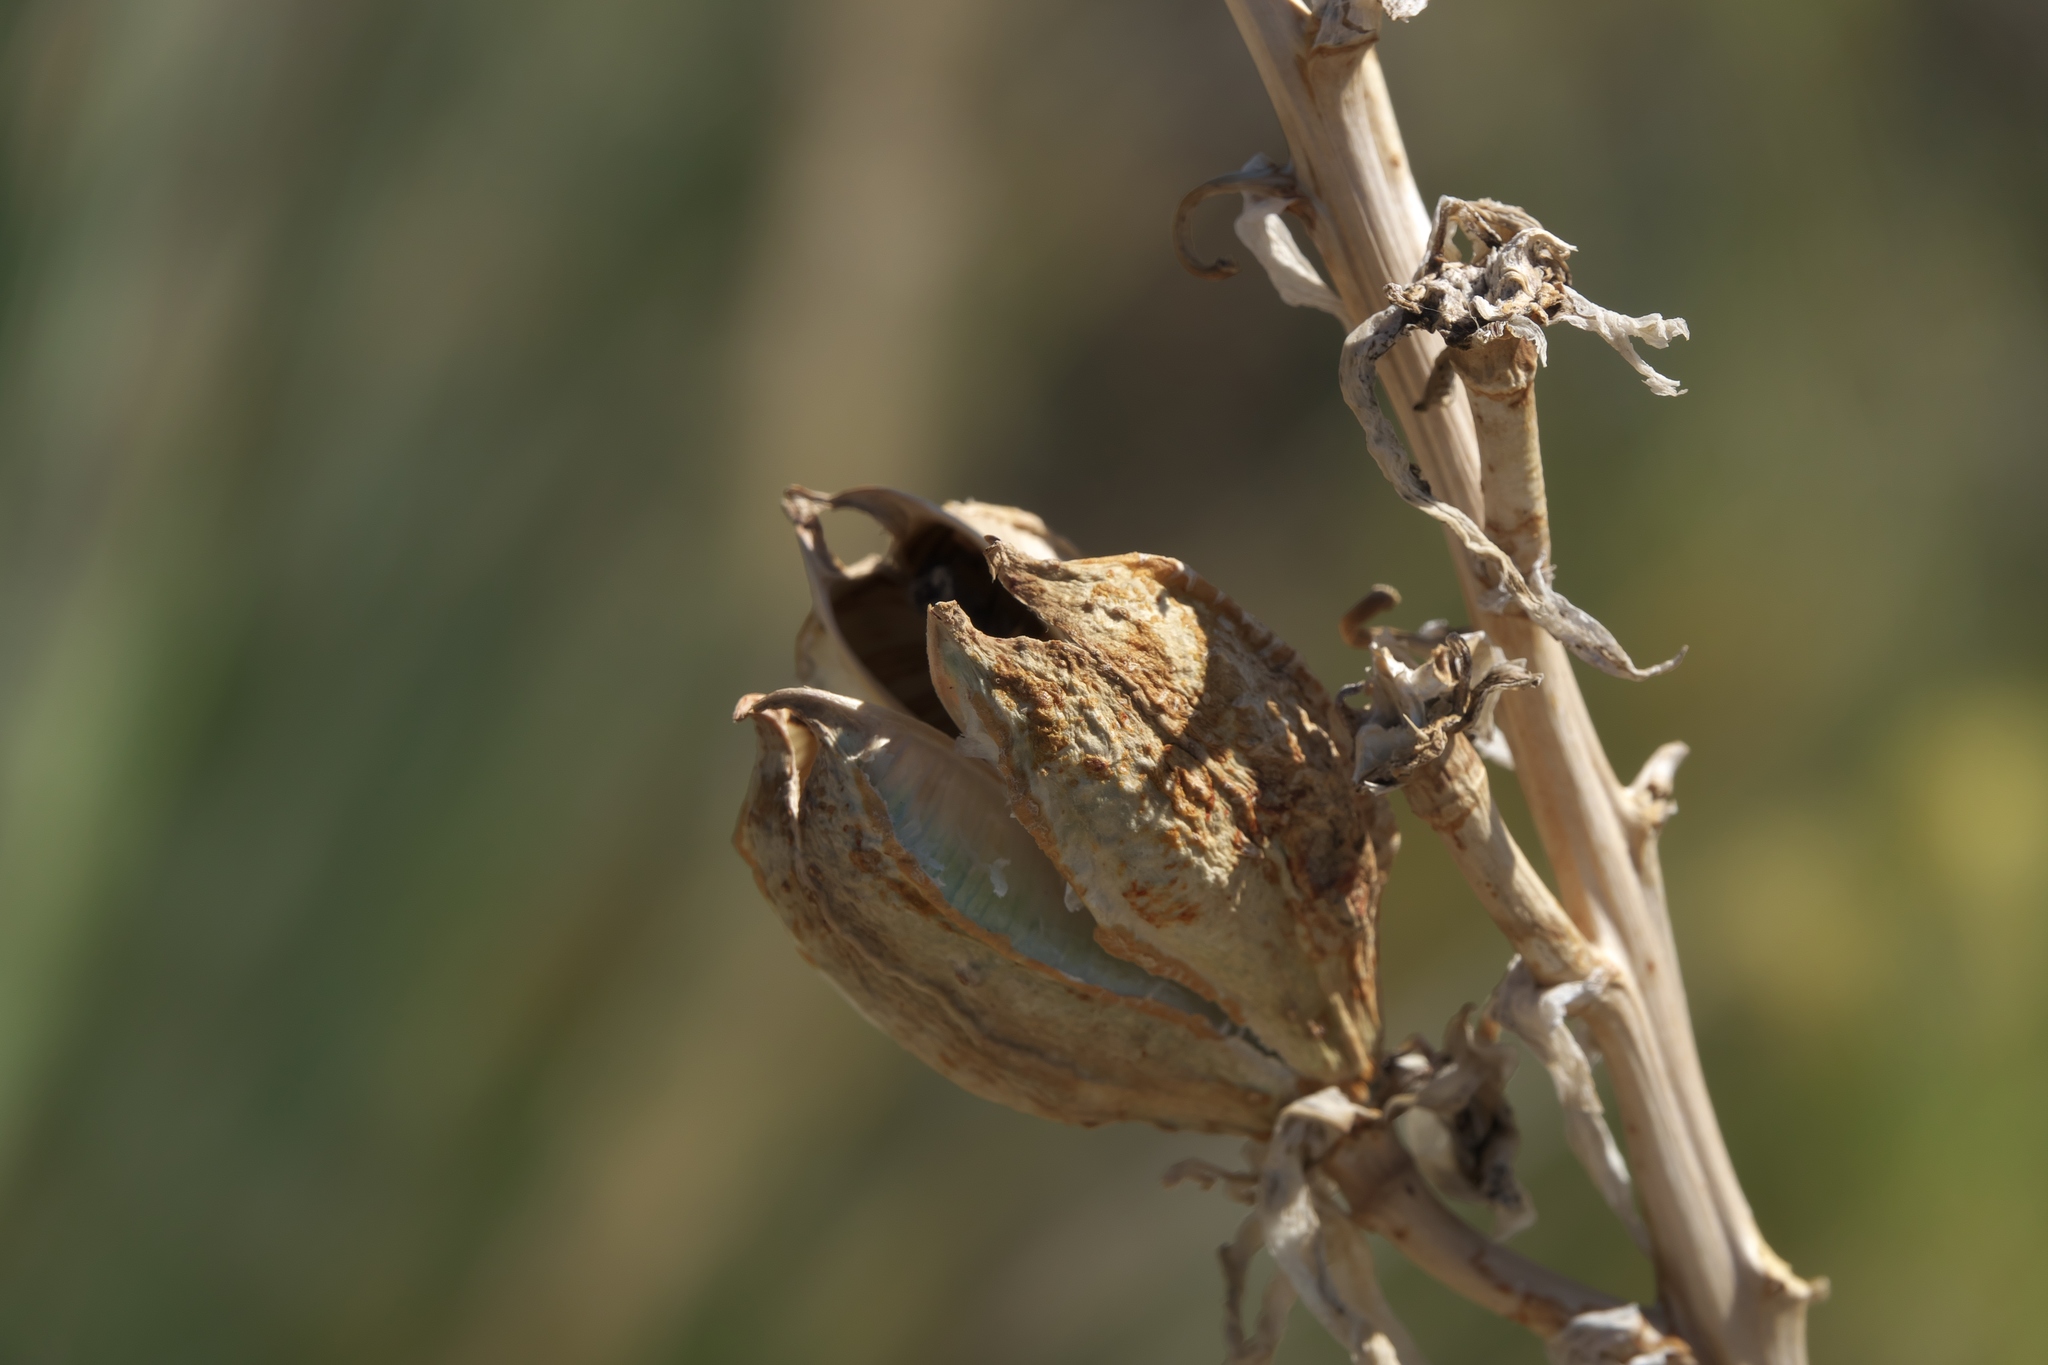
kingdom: Plantae
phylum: Tracheophyta
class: Liliopsida
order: Asparagales
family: Asparagaceae
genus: Yucca
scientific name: Yucca glauca
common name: Great plains yucca
